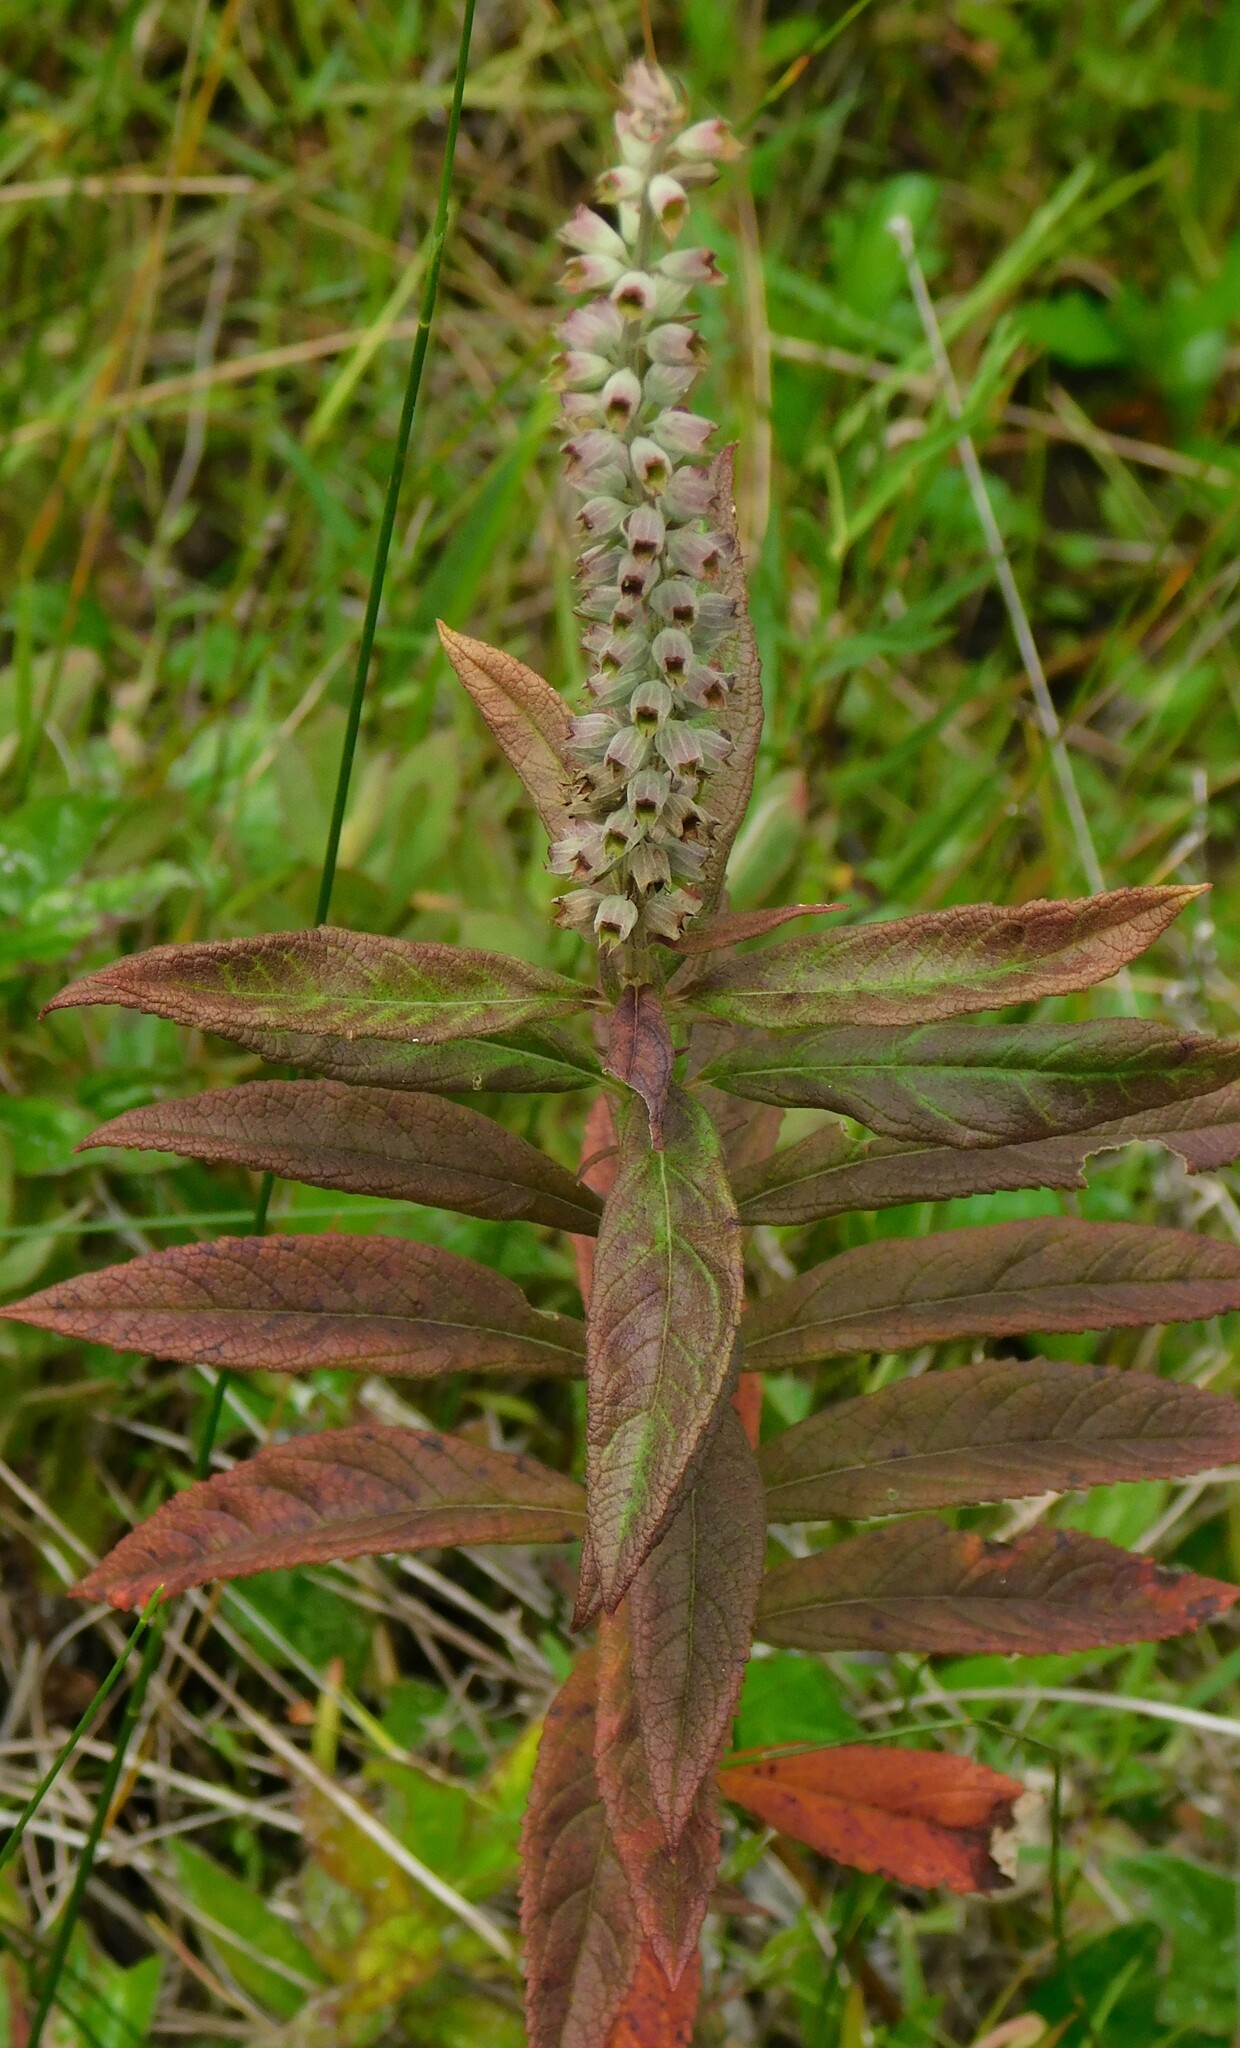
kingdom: Plantae
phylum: Tracheophyta
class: Magnoliopsida
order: Lamiales
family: Lamiaceae
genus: Teucrium
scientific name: Teucrium canadense
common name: American germander
